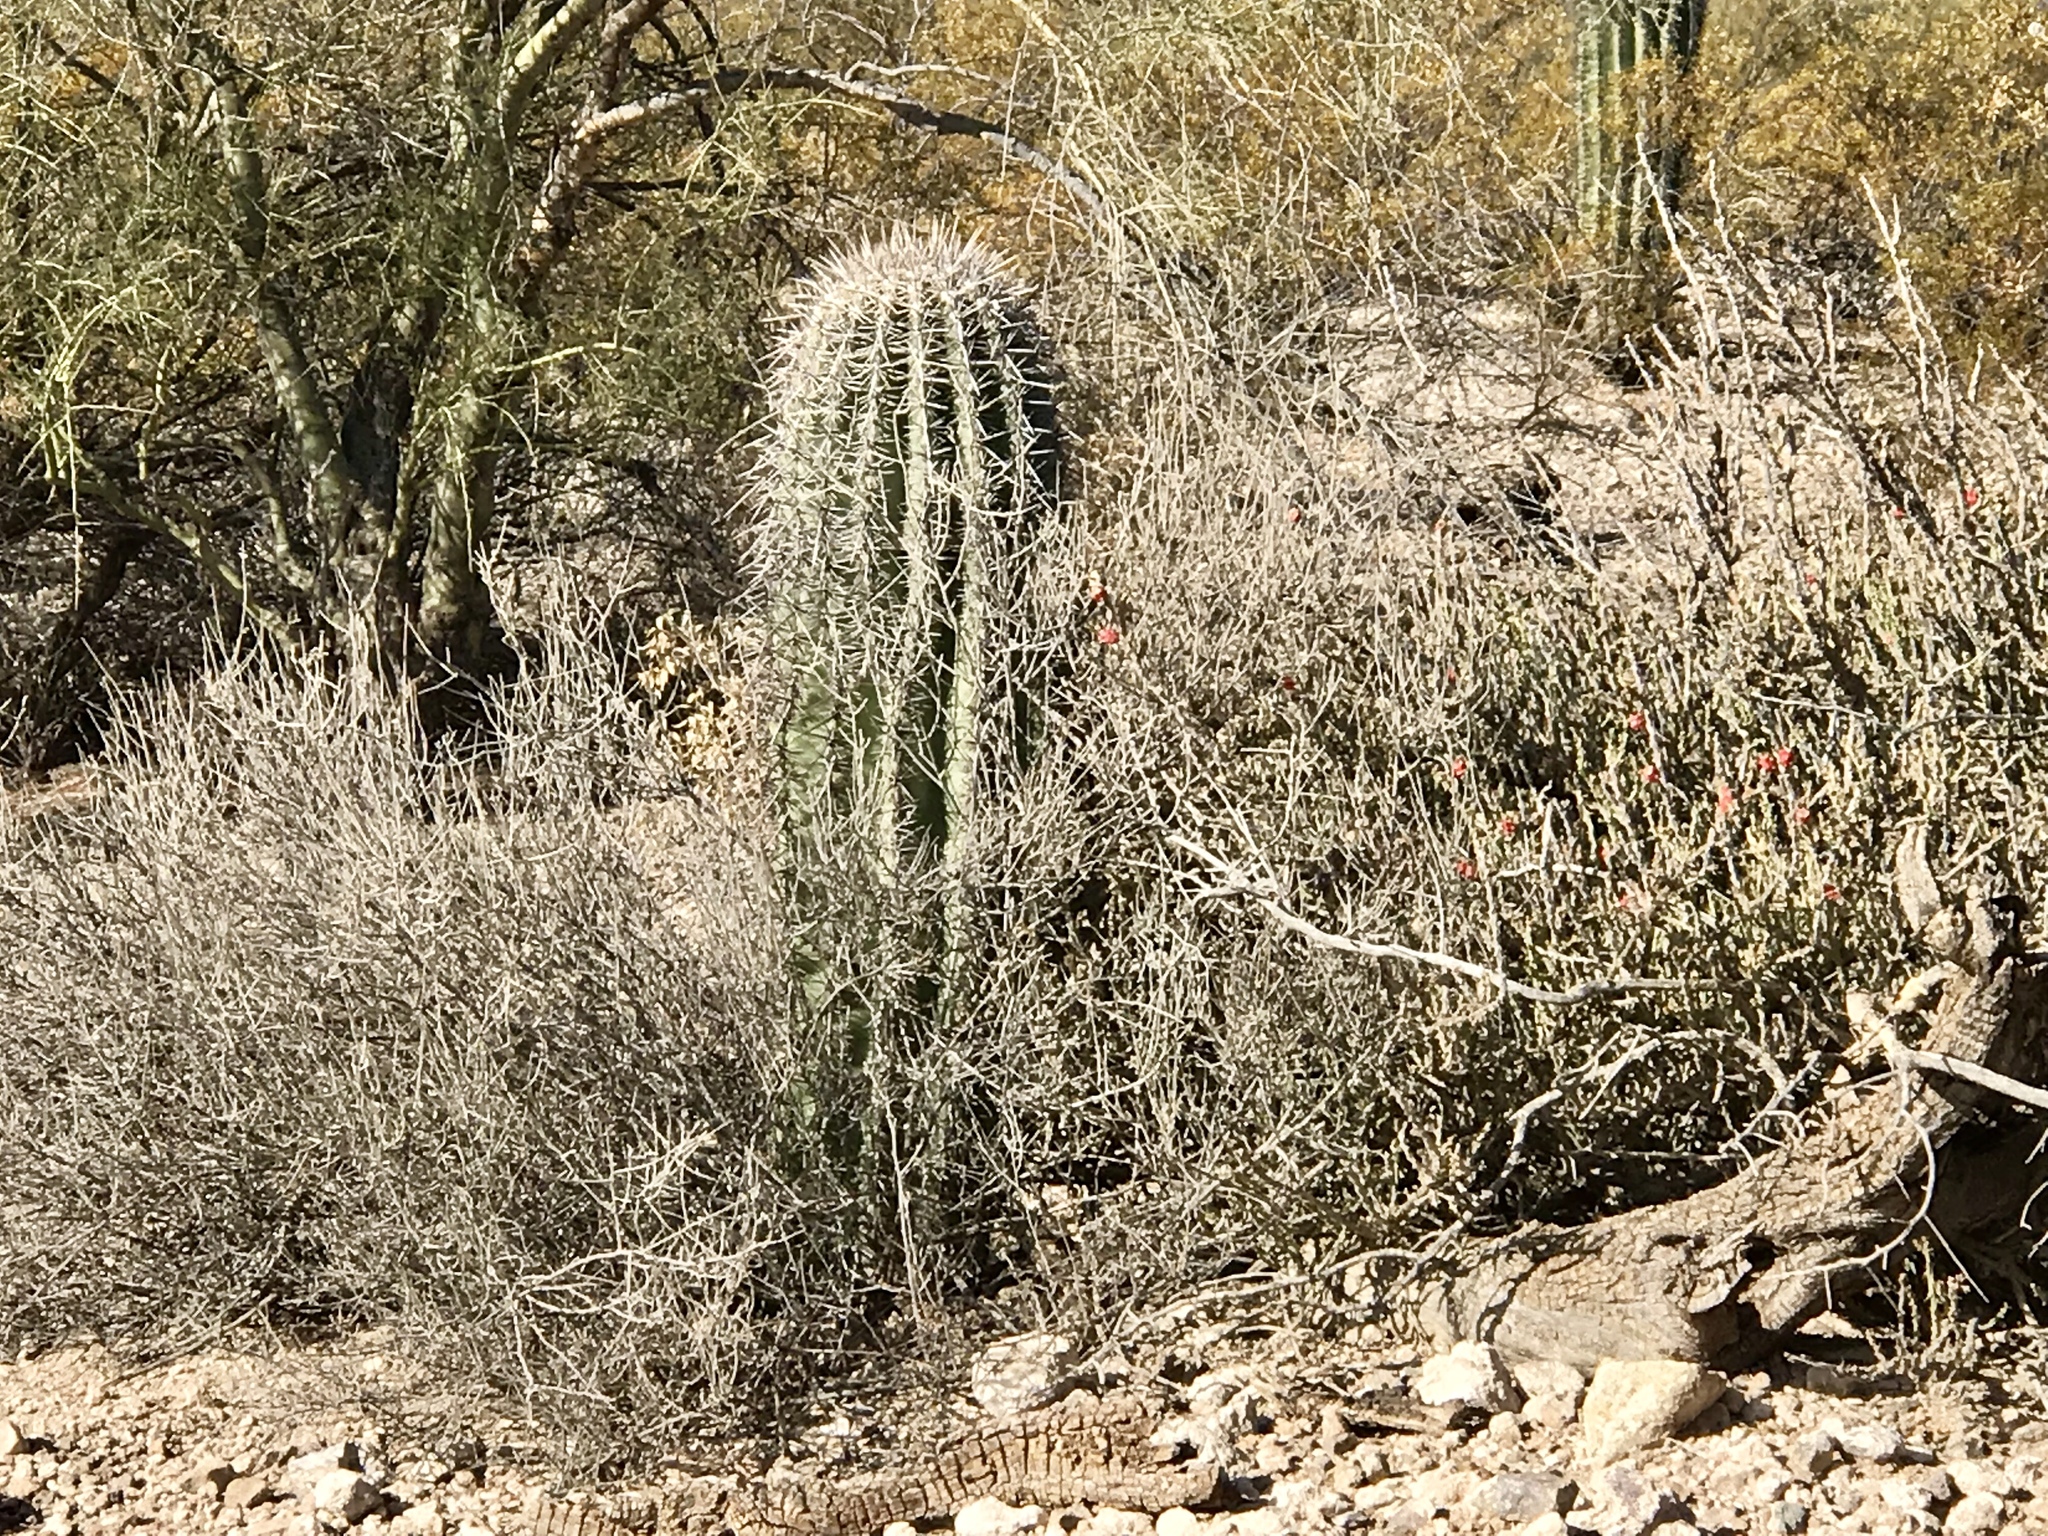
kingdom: Plantae
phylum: Tracheophyta
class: Magnoliopsida
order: Caryophyllales
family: Cactaceae
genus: Carnegiea
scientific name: Carnegiea gigantea
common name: Saguaro
